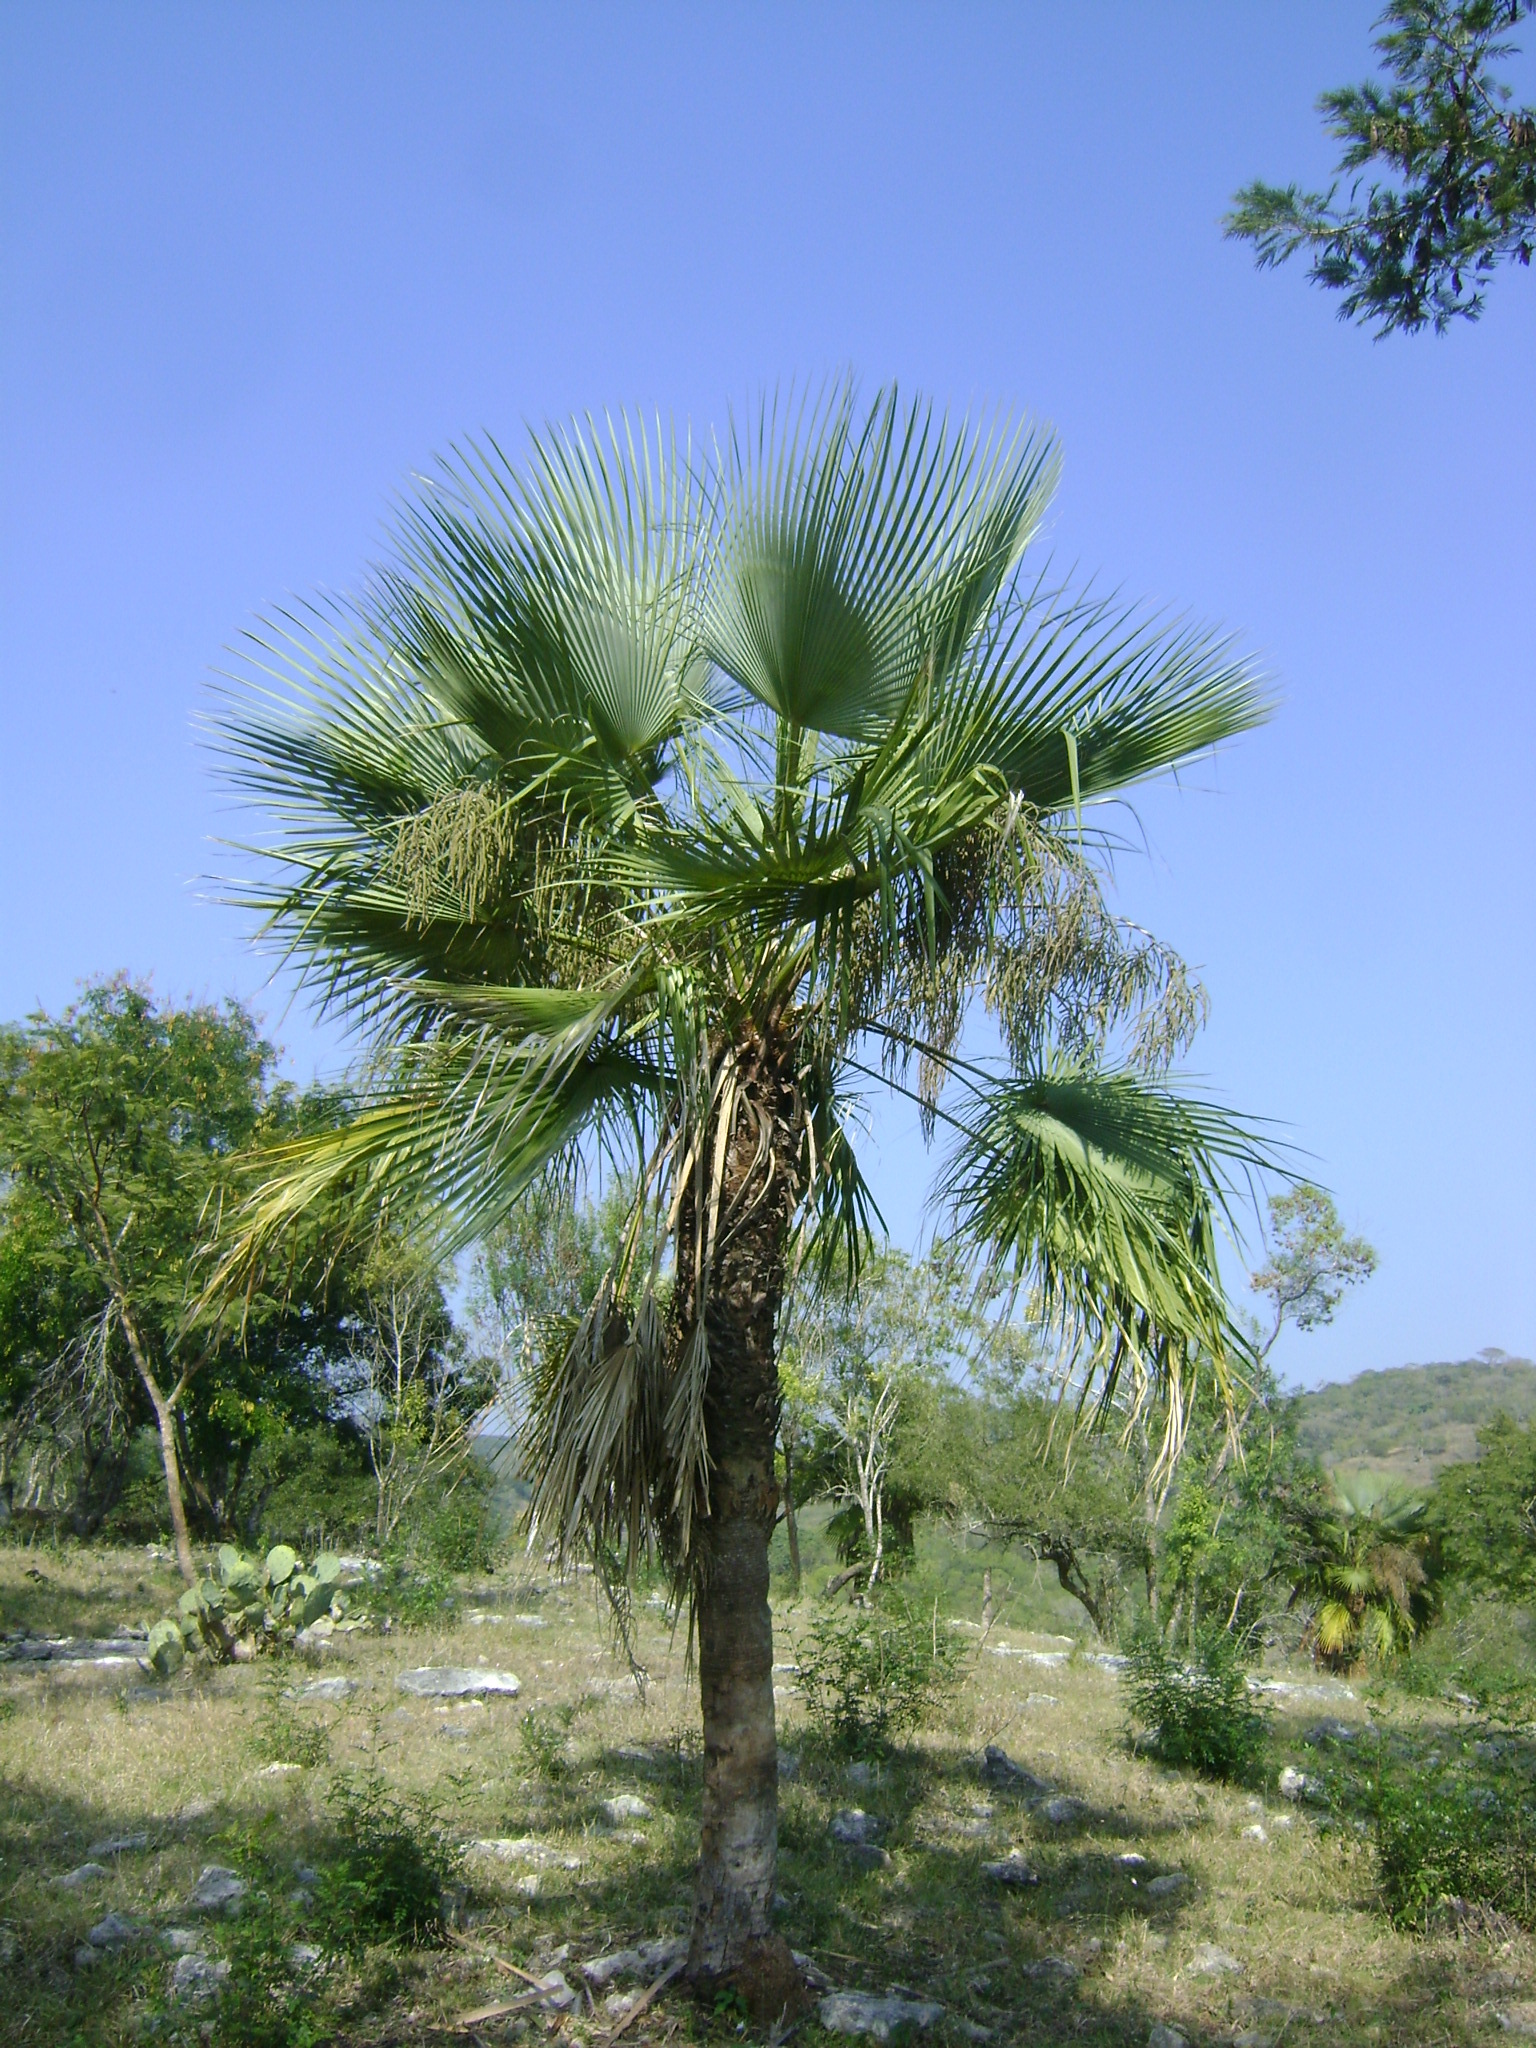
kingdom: Plantae
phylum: Tracheophyta
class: Liliopsida
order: Arecales
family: Arecaceae
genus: Brahea
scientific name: Brahea dulcis
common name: Apak palm
